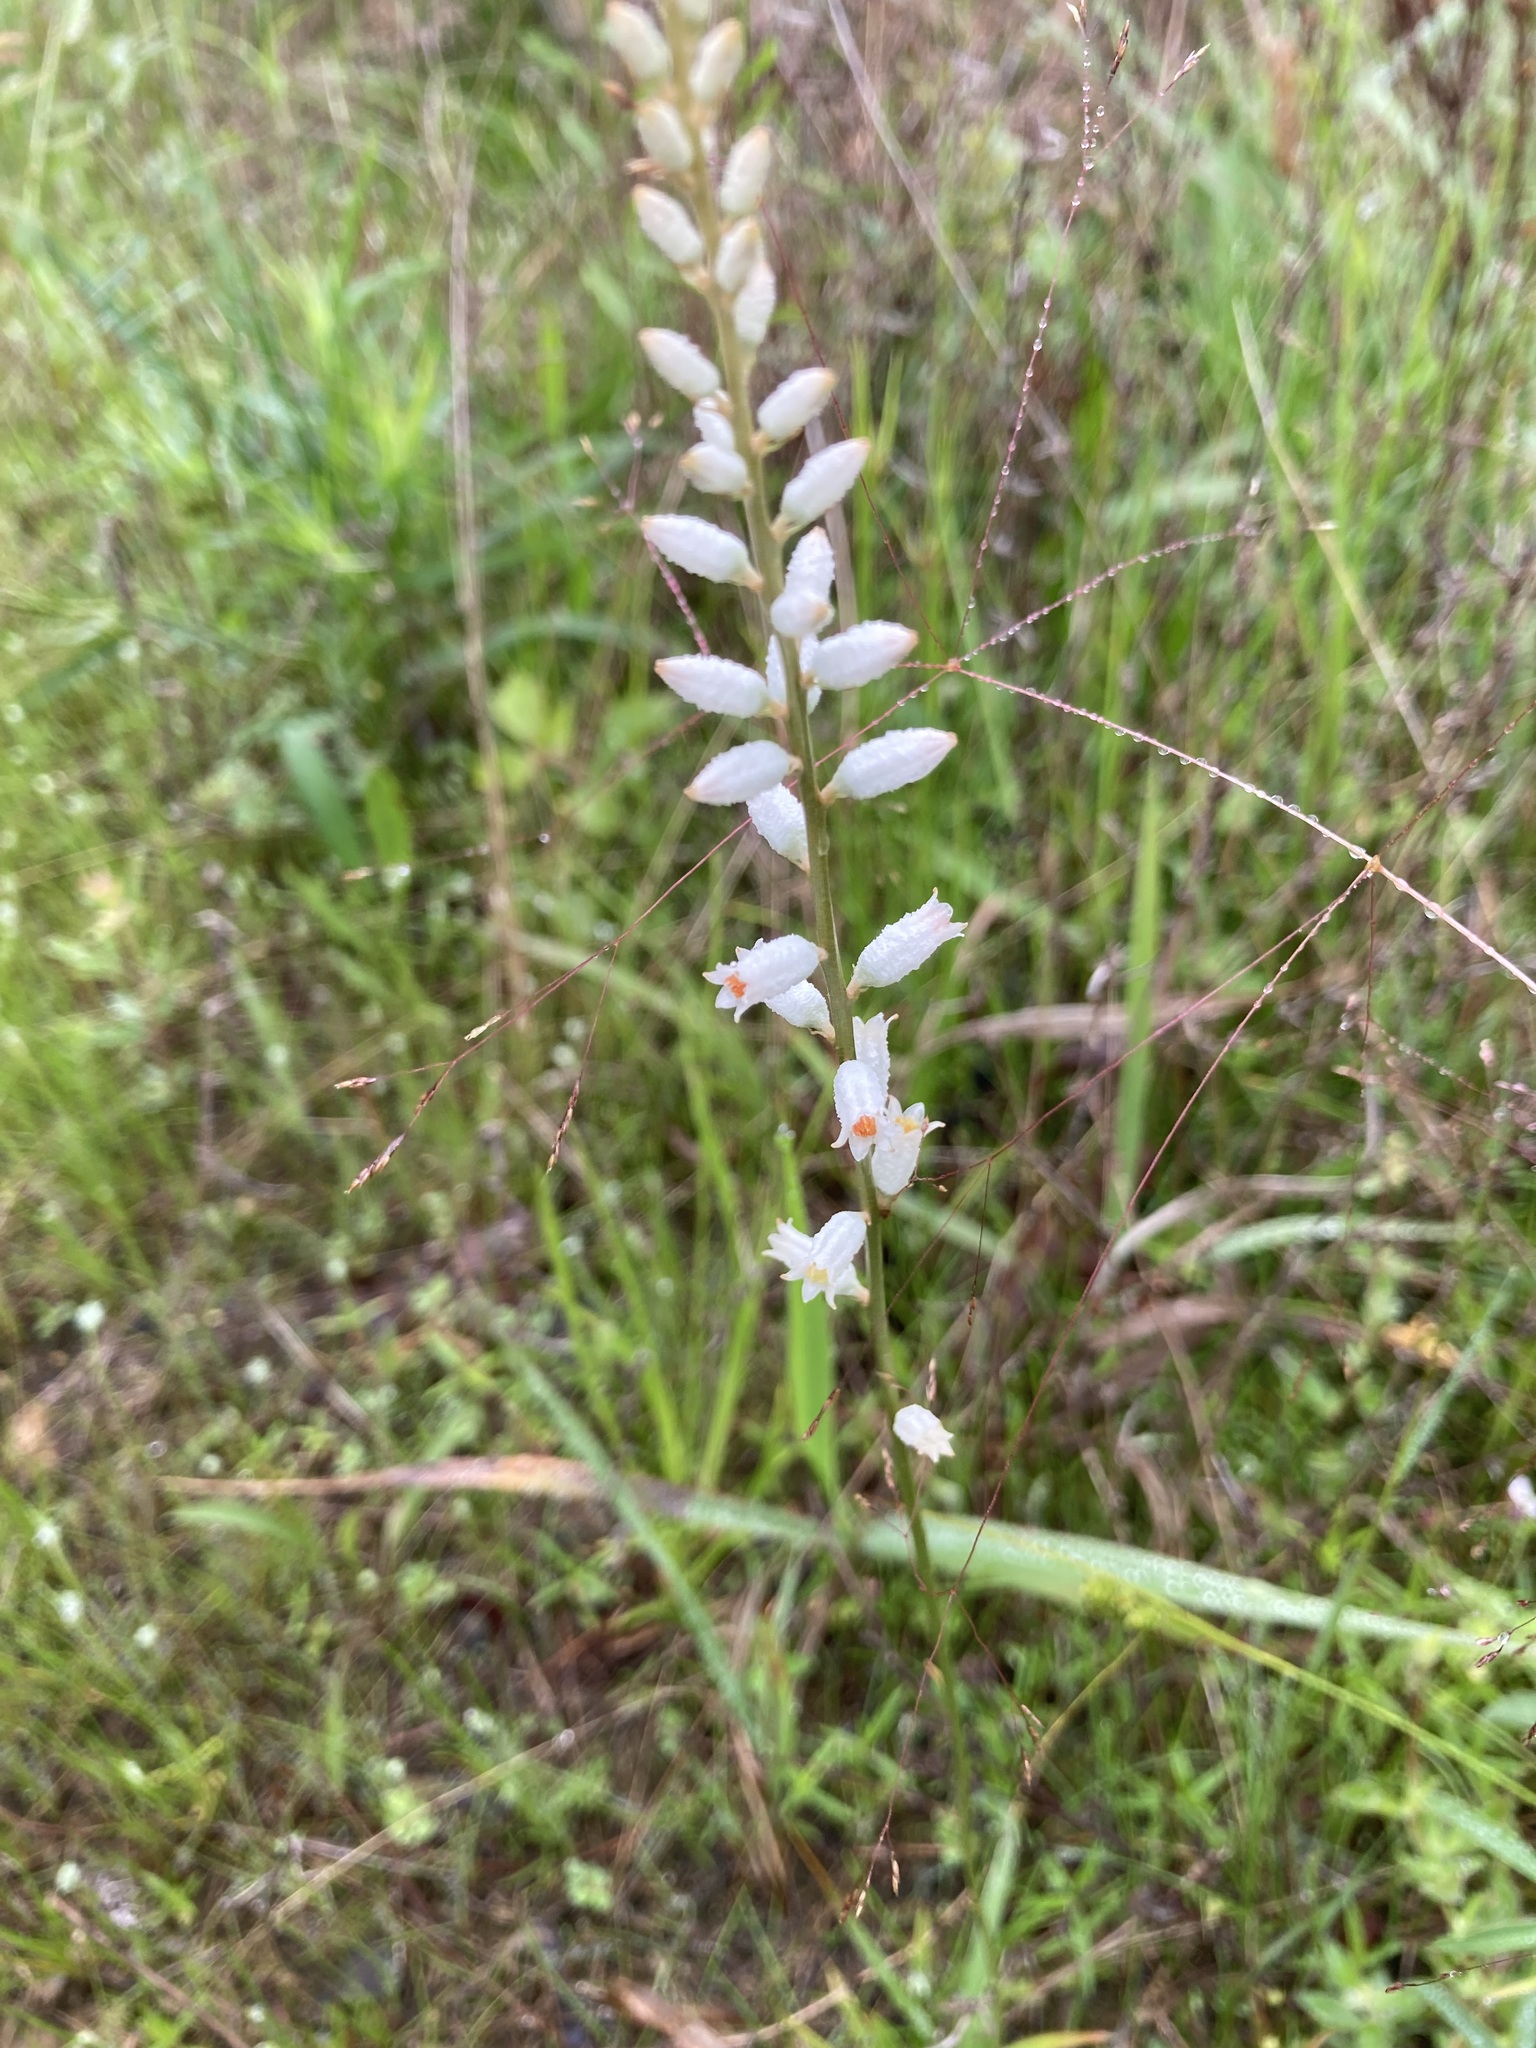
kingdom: Plantae
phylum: Tracheophyta
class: Liliopsida
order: Dioscoreales
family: Nartheciaceae
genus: Aletris
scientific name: Aletris farinosa
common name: Colicroot
